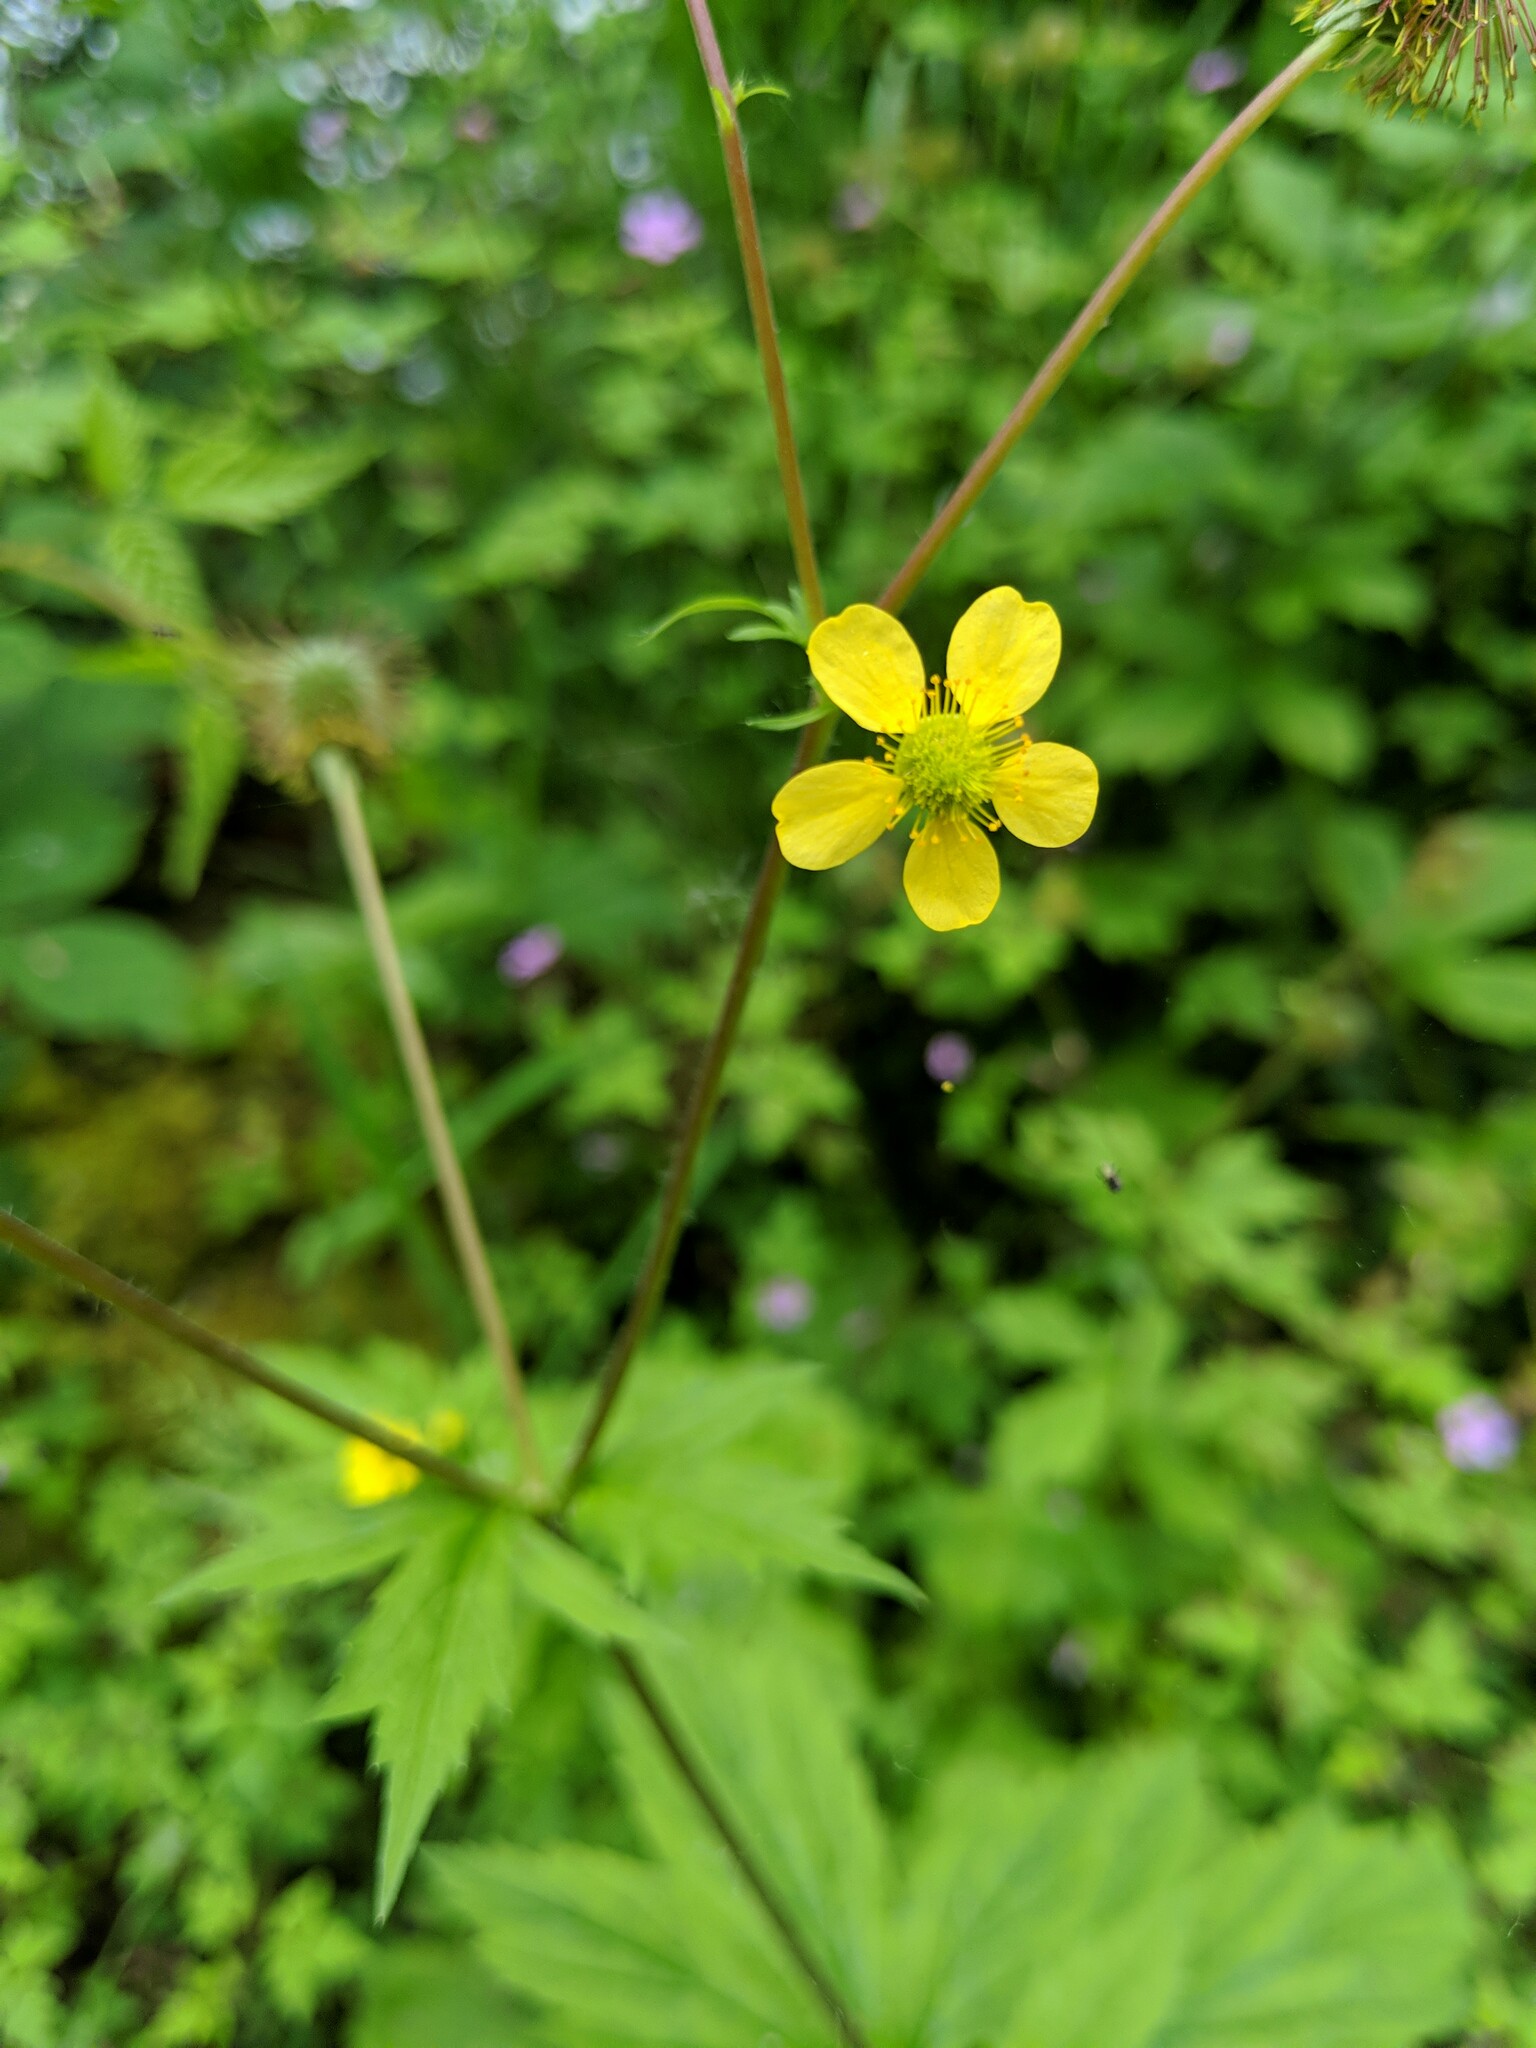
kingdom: Plantae
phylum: Tracheophyta
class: Magnoliopsida
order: Rosales
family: Rosaceae
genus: Geum
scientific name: Geum macrophyllum
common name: Large-leaved avens
